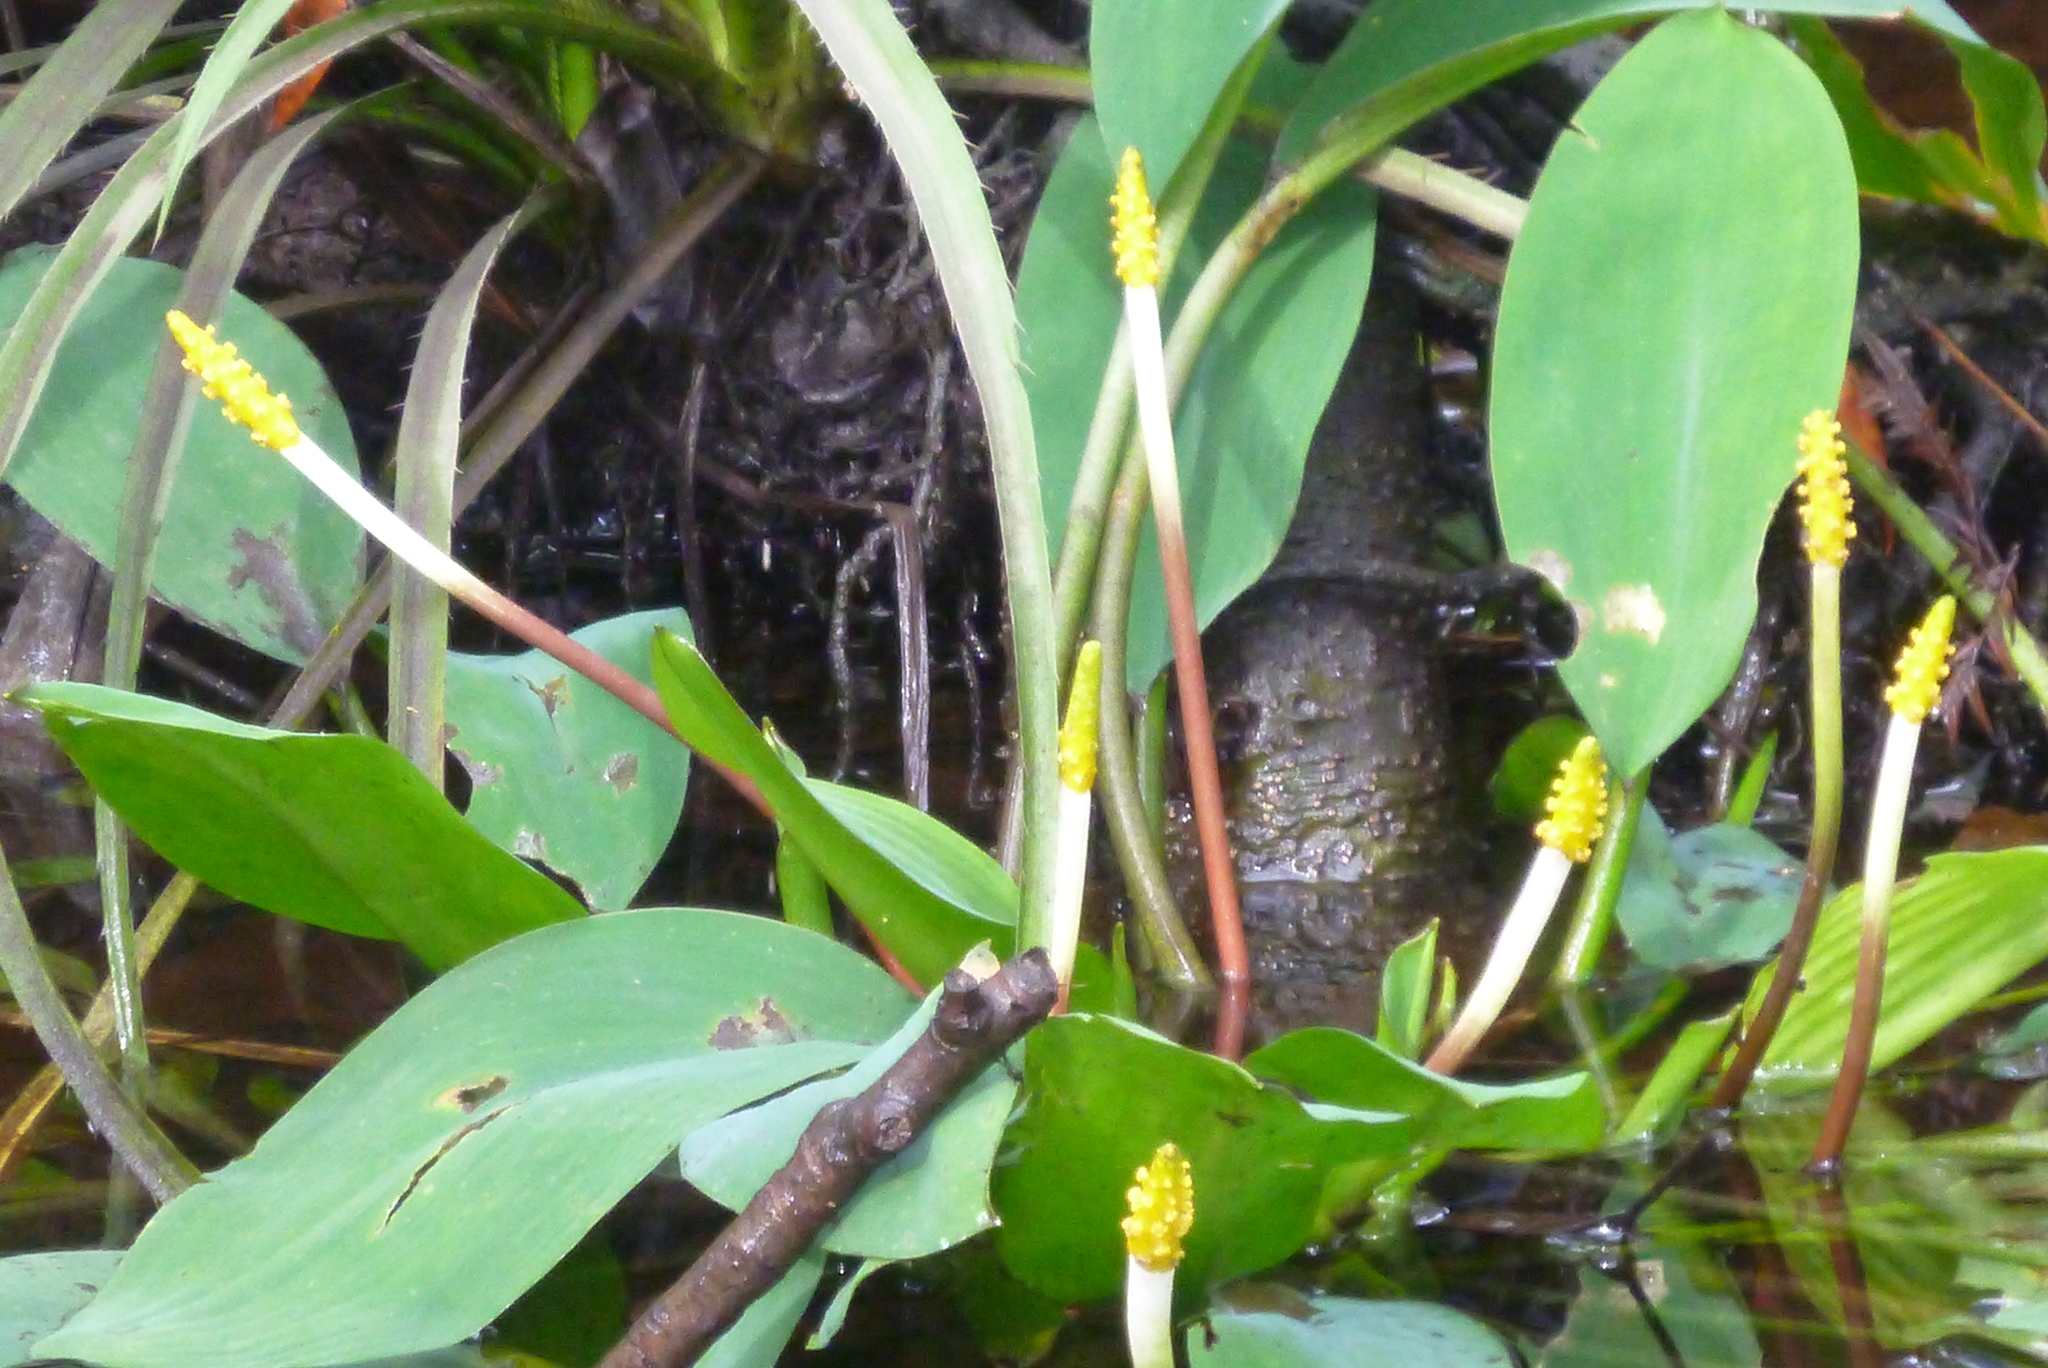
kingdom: Plantae
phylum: Tracheophyta
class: Liliopsida
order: Alismatales
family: Araceae
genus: Orontium
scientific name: Orontium aquaticum
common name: Golden-club
